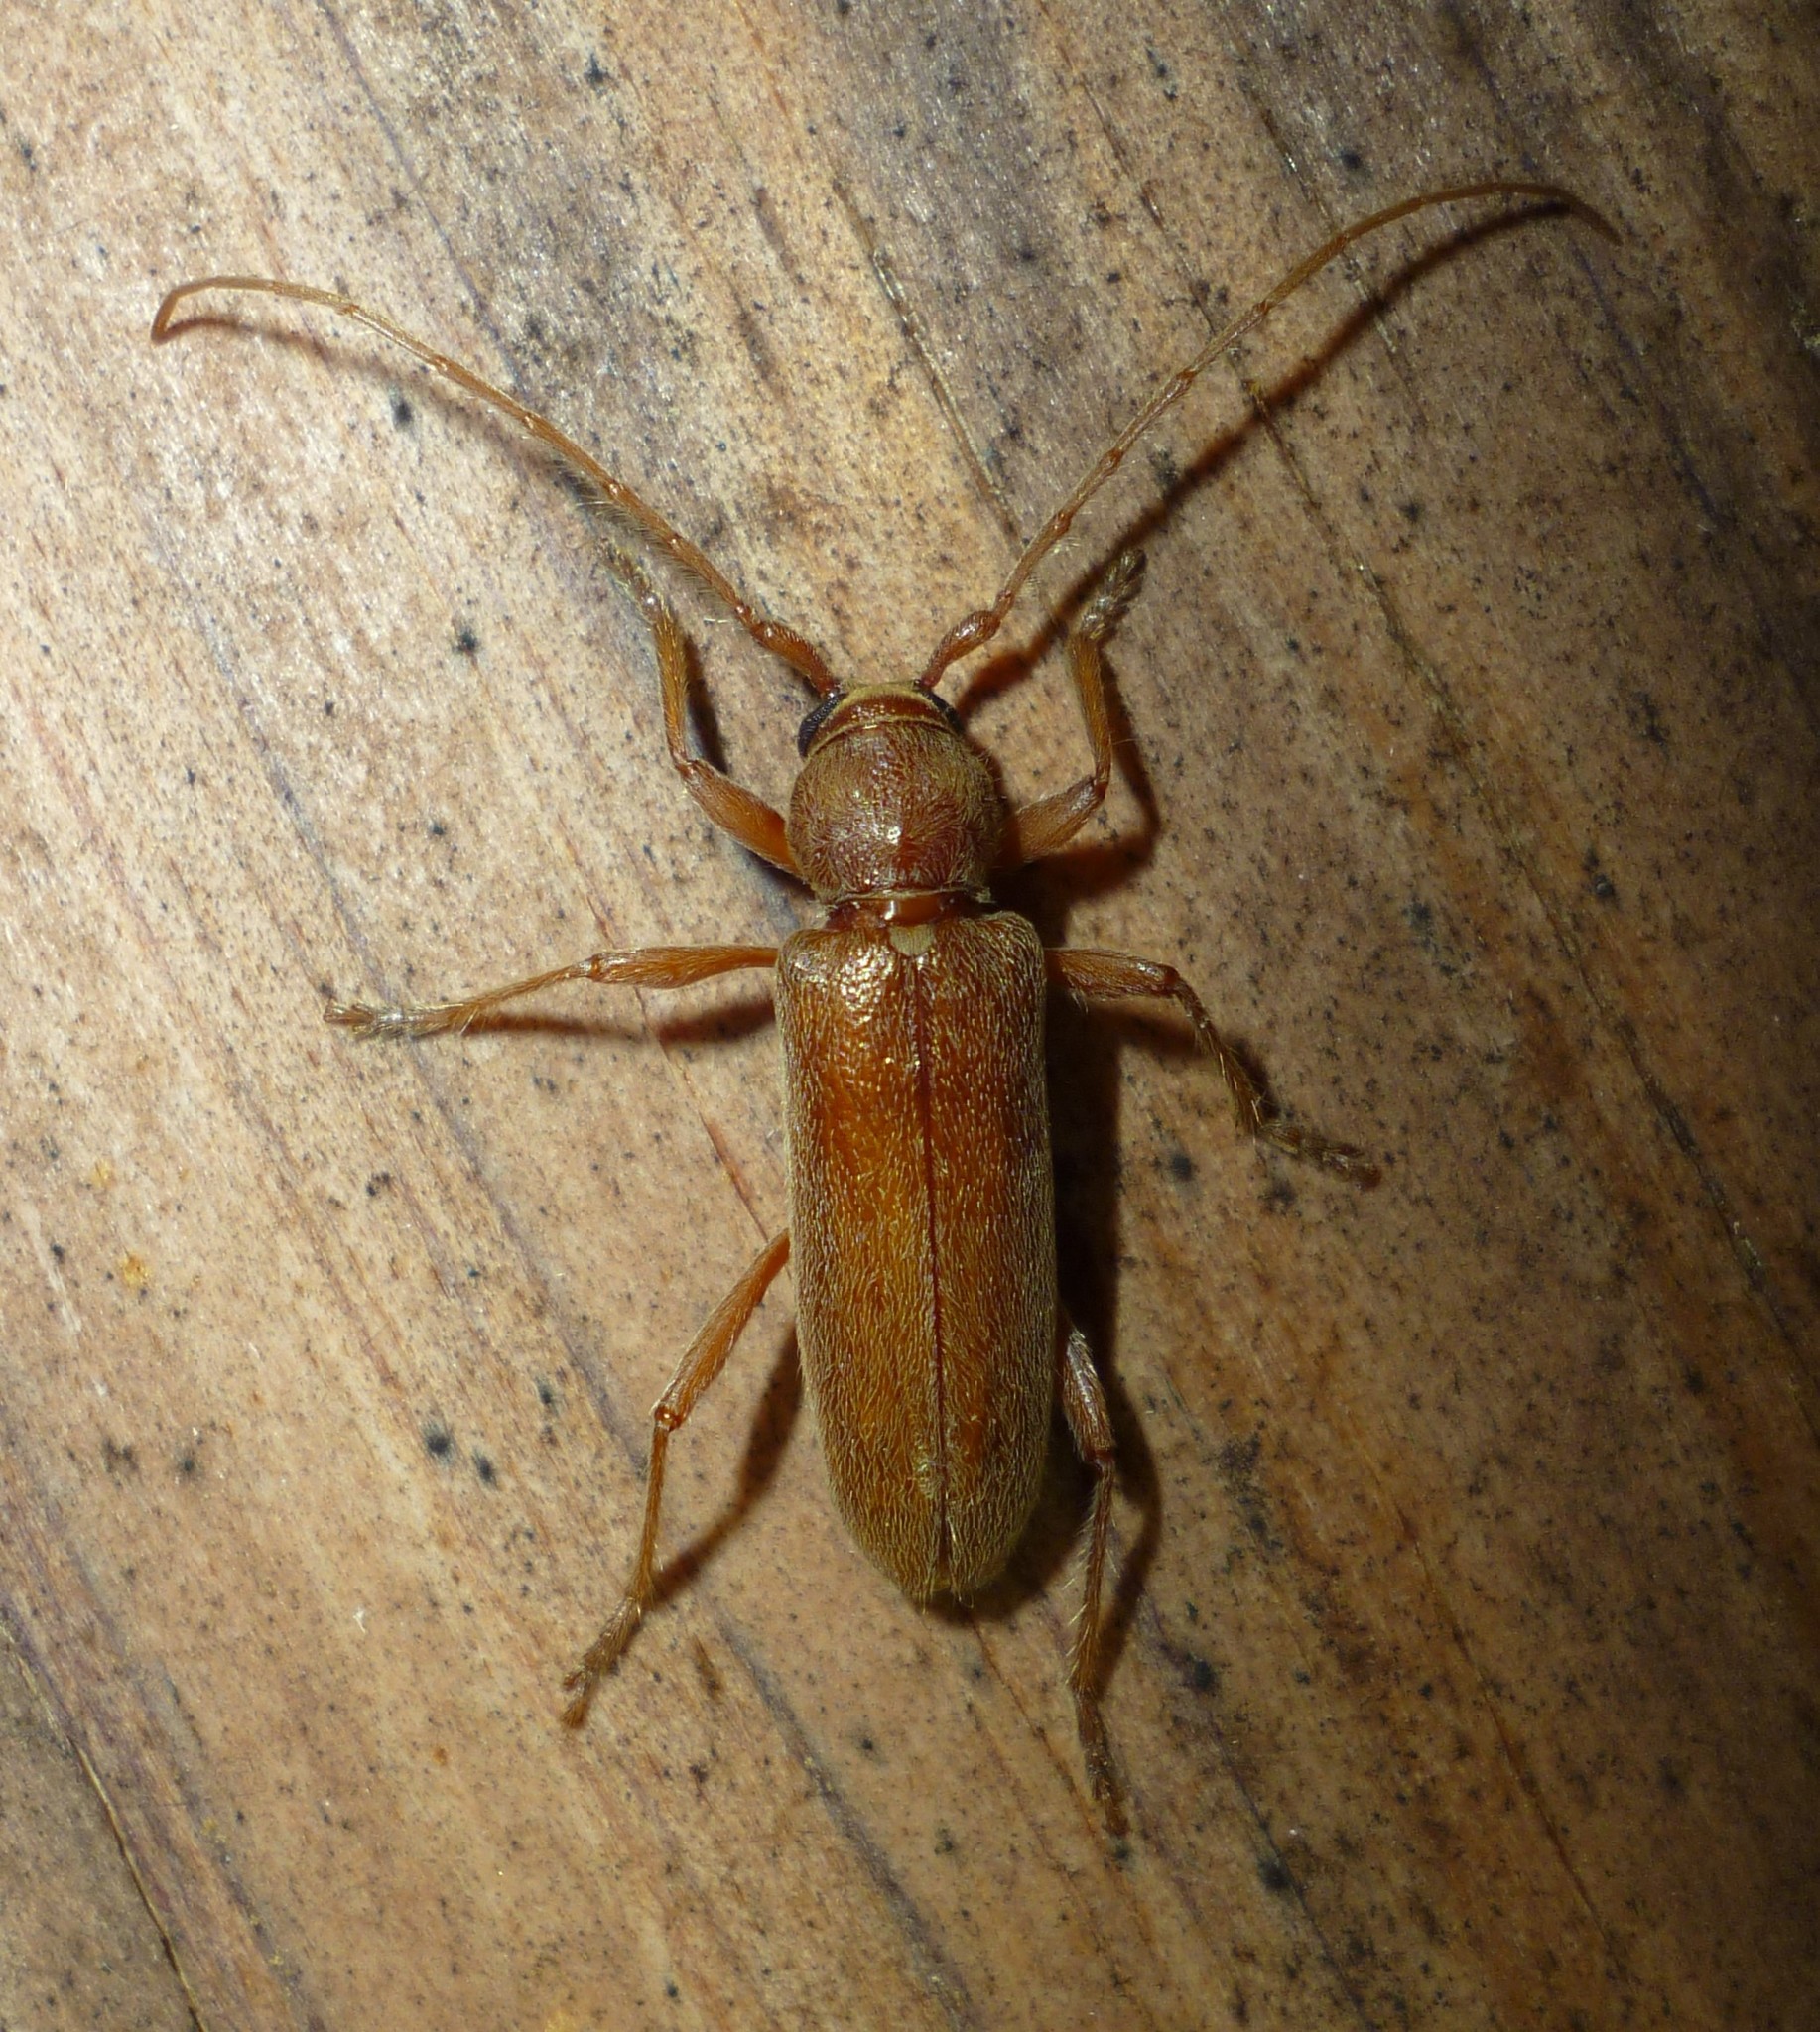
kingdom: Animalia
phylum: Arthropoda
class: Insecta
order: Coleoptera
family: Cerambycidae
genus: Hesperophanes
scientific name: Hesperophanes pubescens
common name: Longhorned wood-boring beetle
